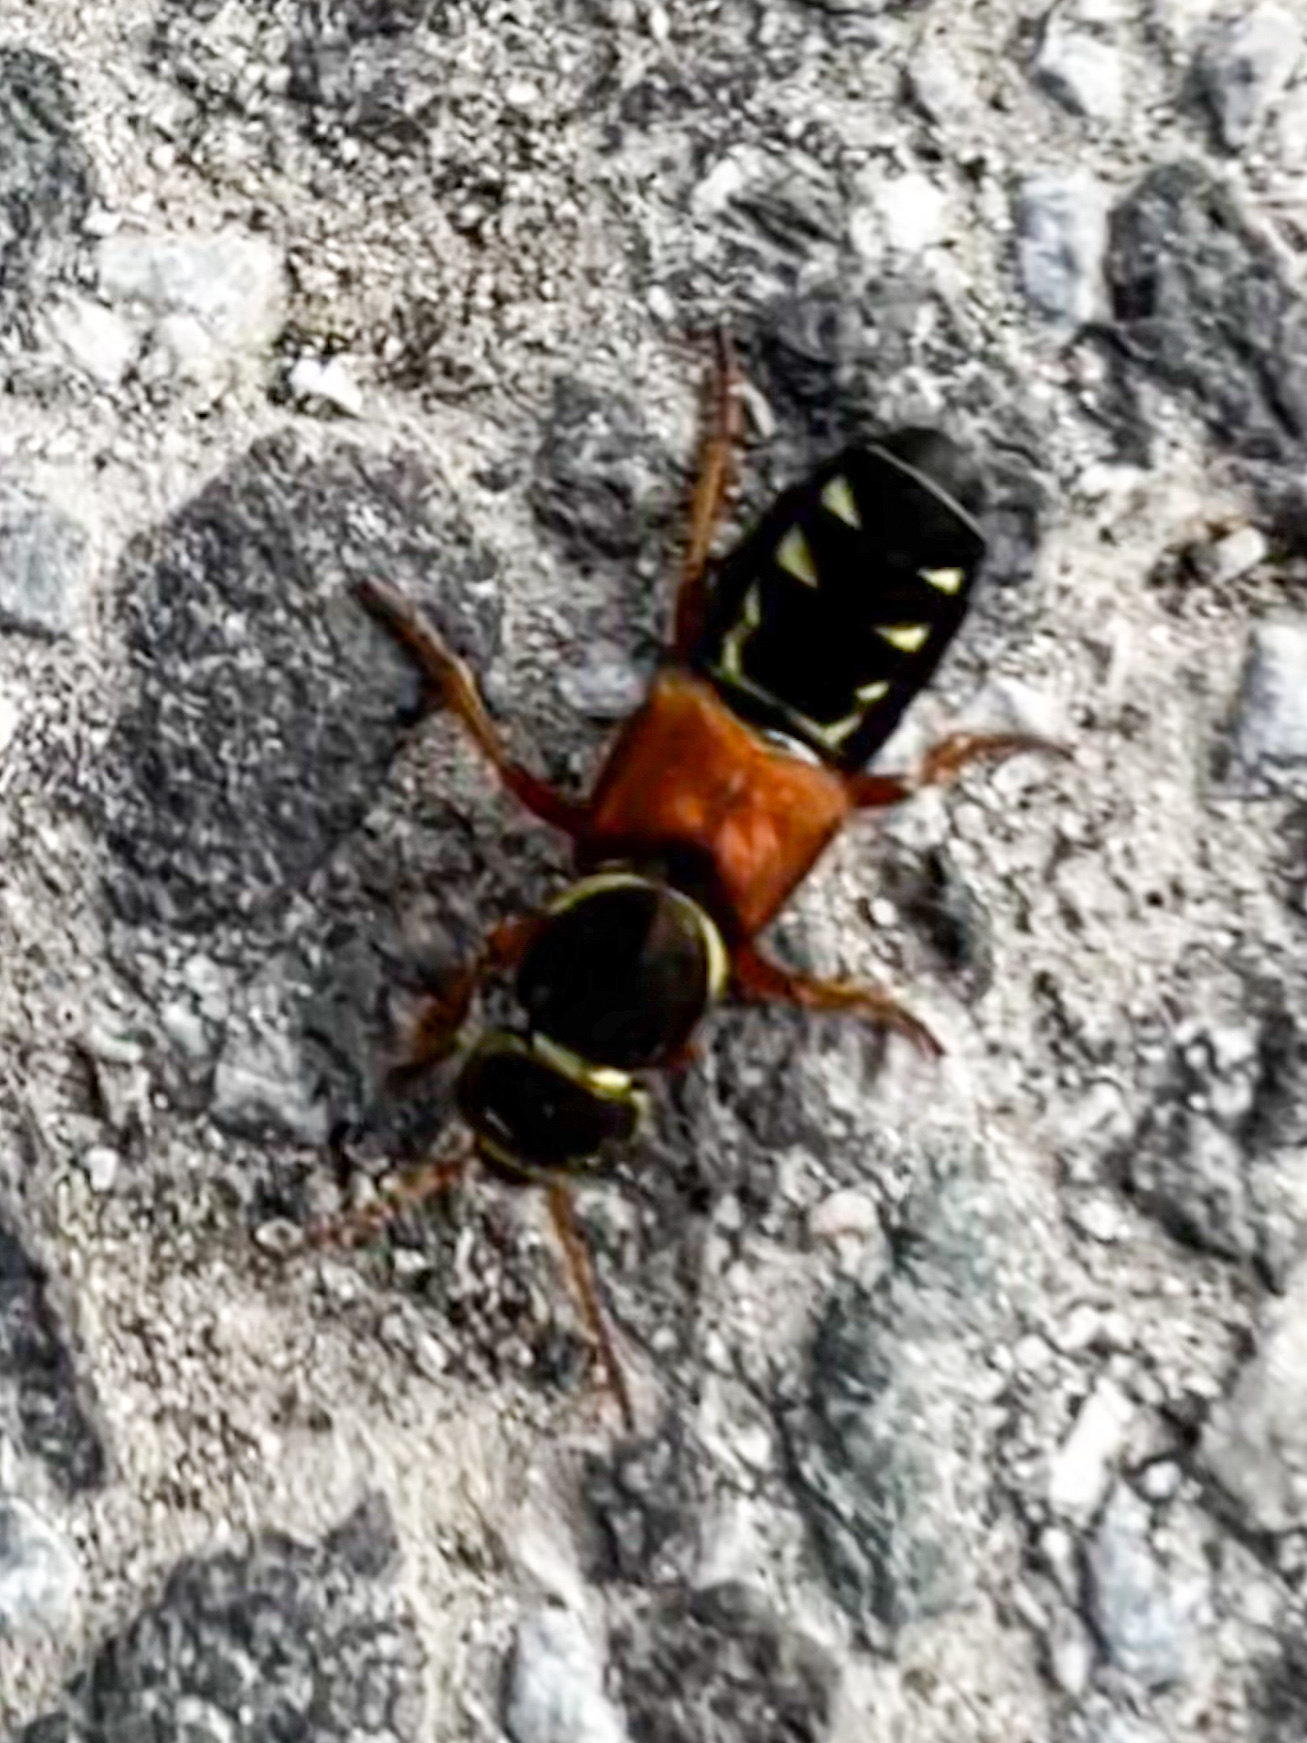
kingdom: Animalia
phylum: Arthropoda
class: Insecta
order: Coleoptera
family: Staphylinidae
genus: Staphylinus
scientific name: Staphylinus caesareus
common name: Staph beetle
